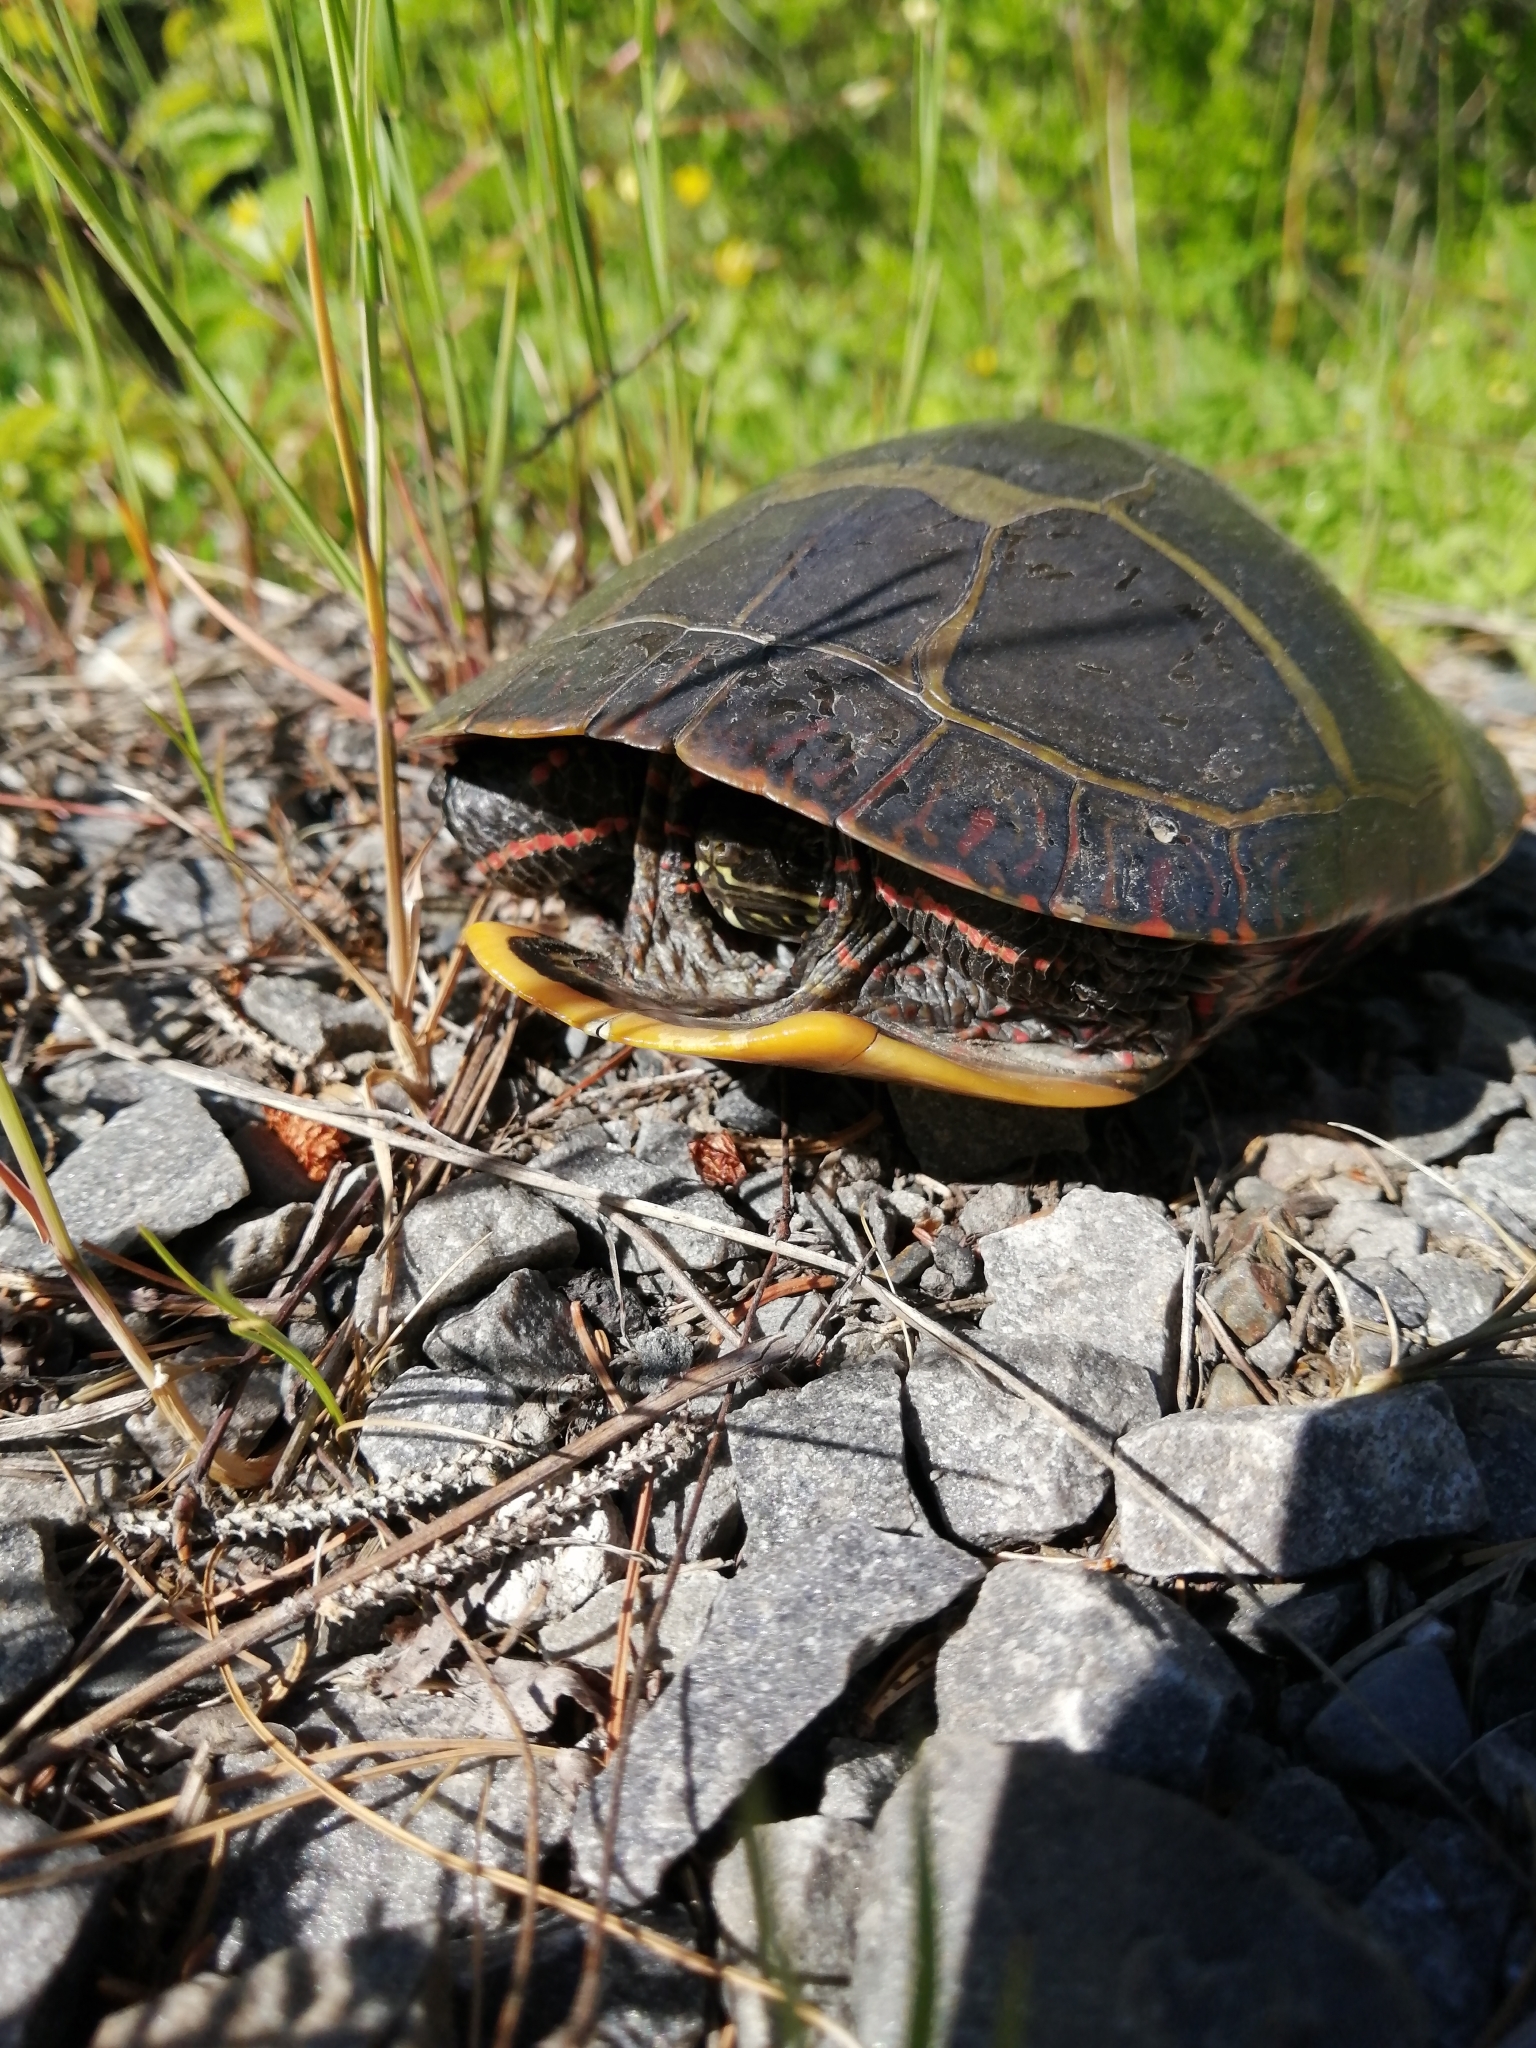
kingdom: Animalia
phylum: Chordata
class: Testudines
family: Emydidae
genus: Chrysemys
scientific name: Chrysemys picta
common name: Painted turtle
